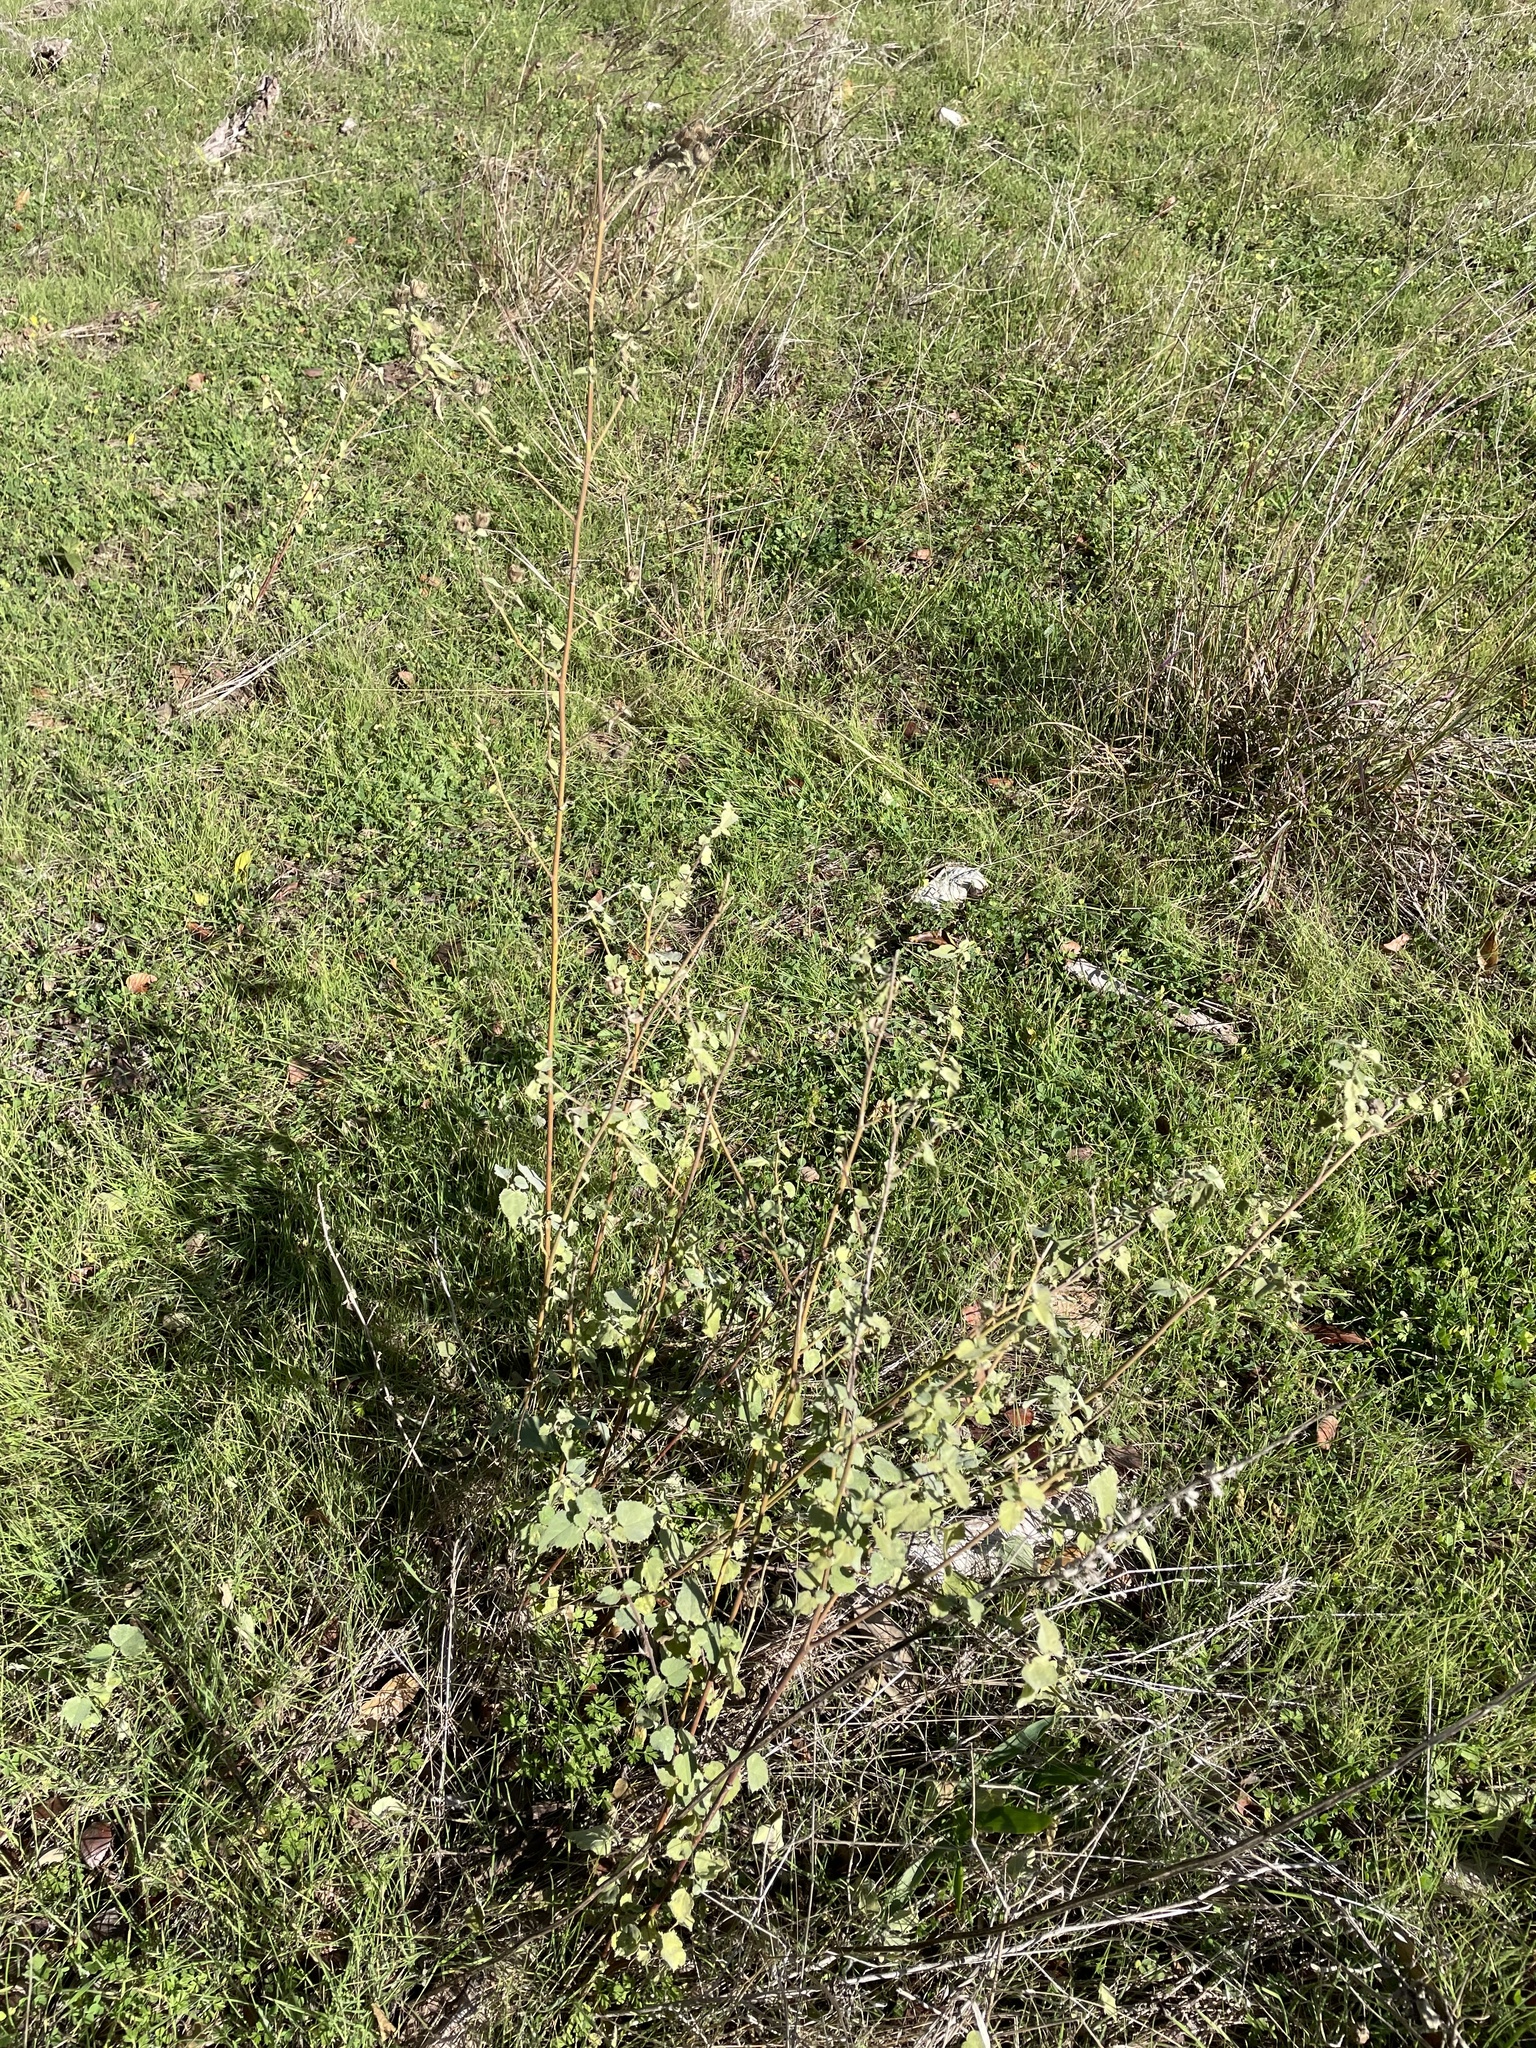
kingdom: Plantae
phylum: Tracheophyta
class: Magnoliopsida
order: Malvales
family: Malvaceae
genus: Abutilon
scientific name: Abutilon fruticosum
